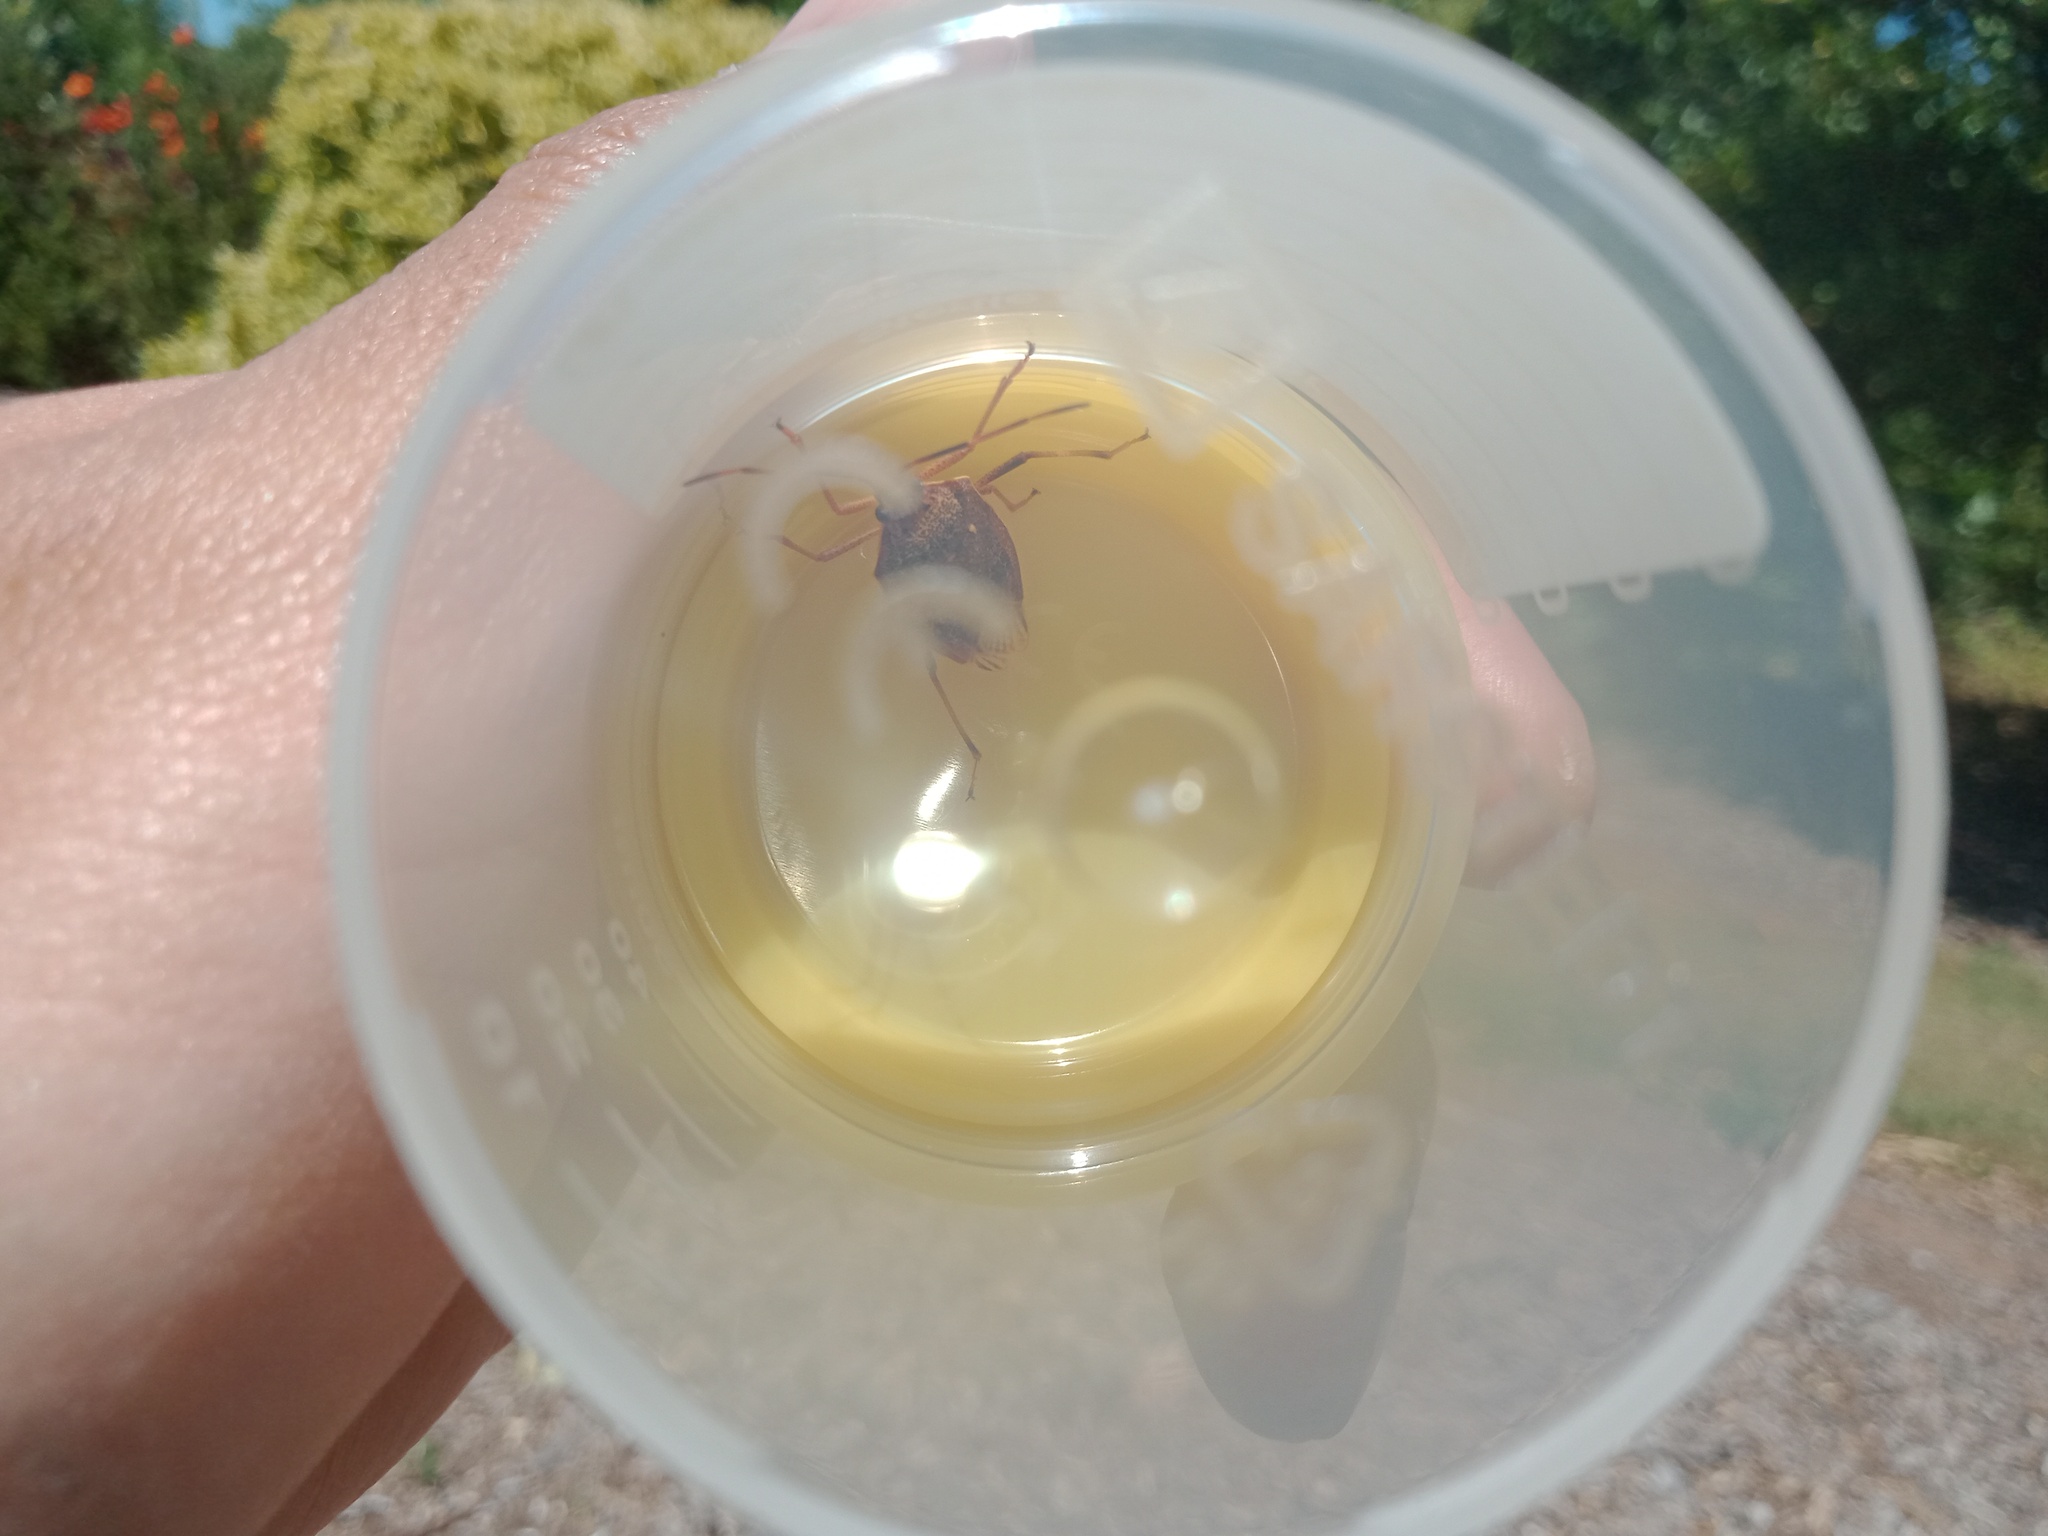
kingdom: Animalia
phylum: Arthropoda
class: Insecta
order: Hemiptera
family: Pentatomidae
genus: Poecilometis
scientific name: Poecilometis
